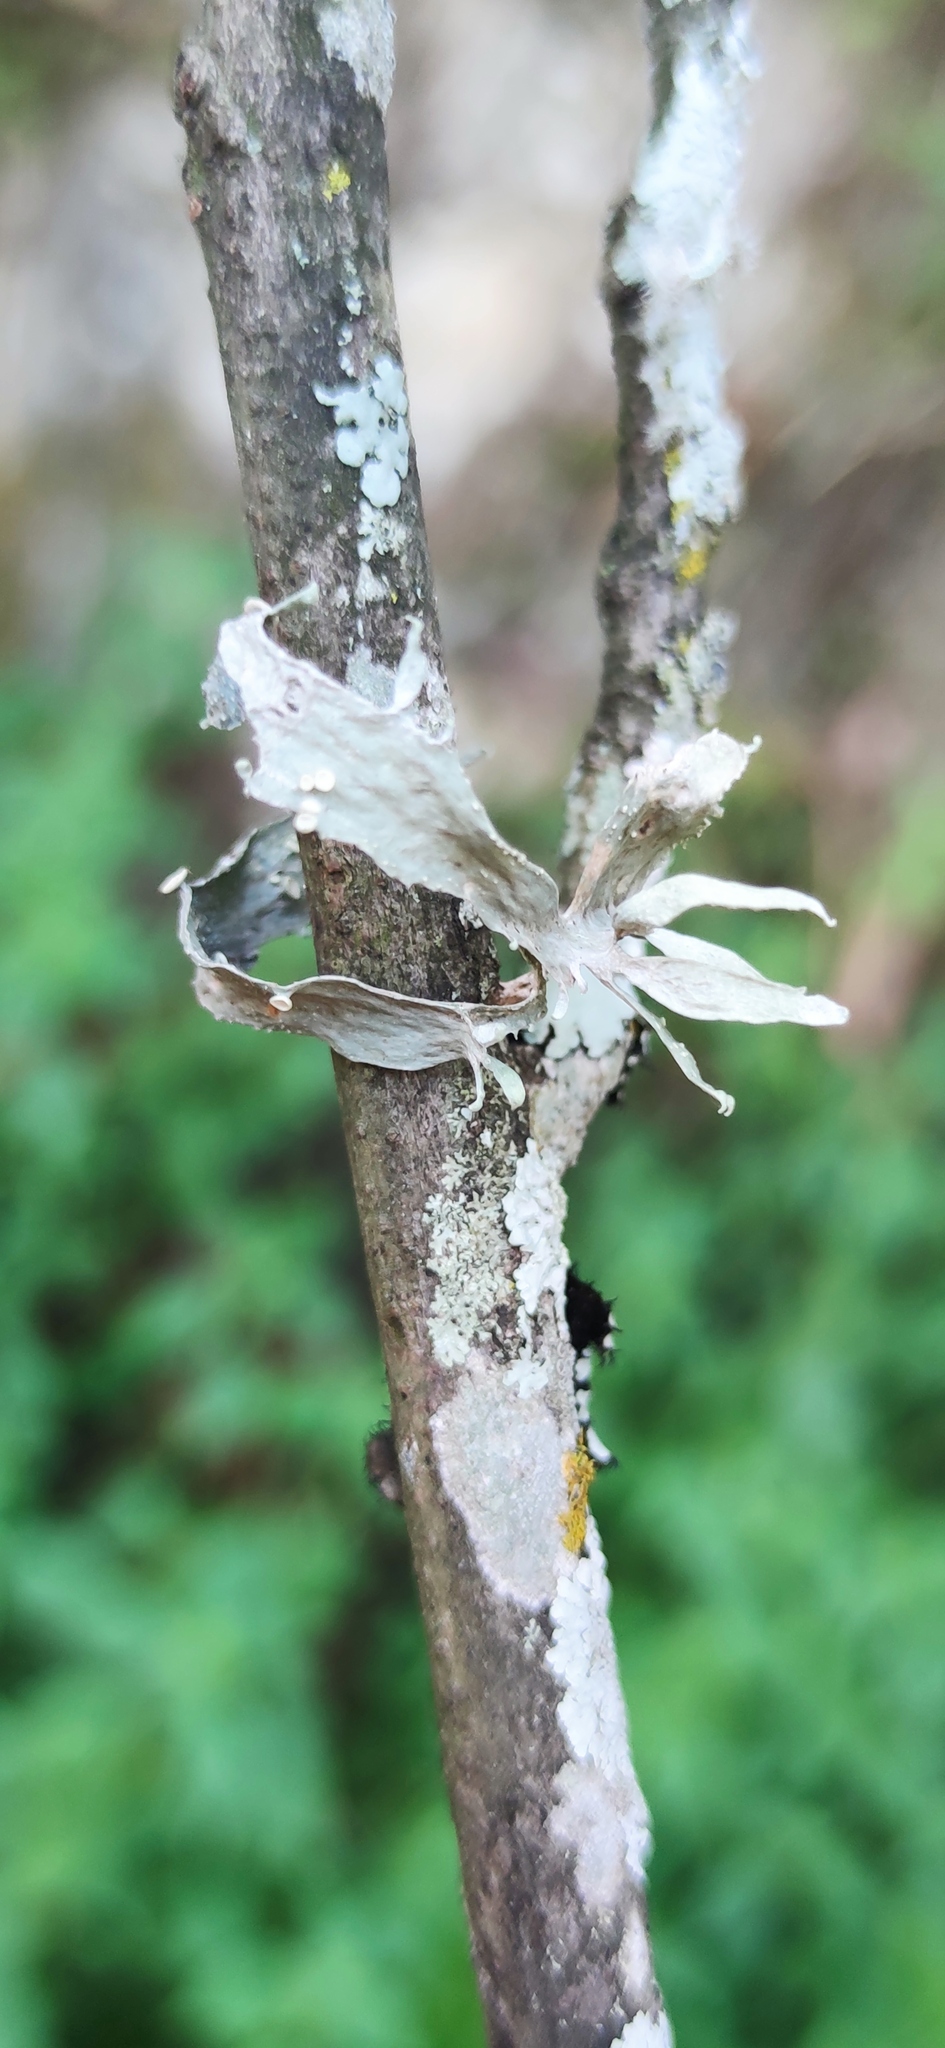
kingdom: Fungi
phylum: Ascomycota
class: Lecanoromycetes
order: Lecanorales
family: Ramalinaceae
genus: Ramalina
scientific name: Ramalina celastri
